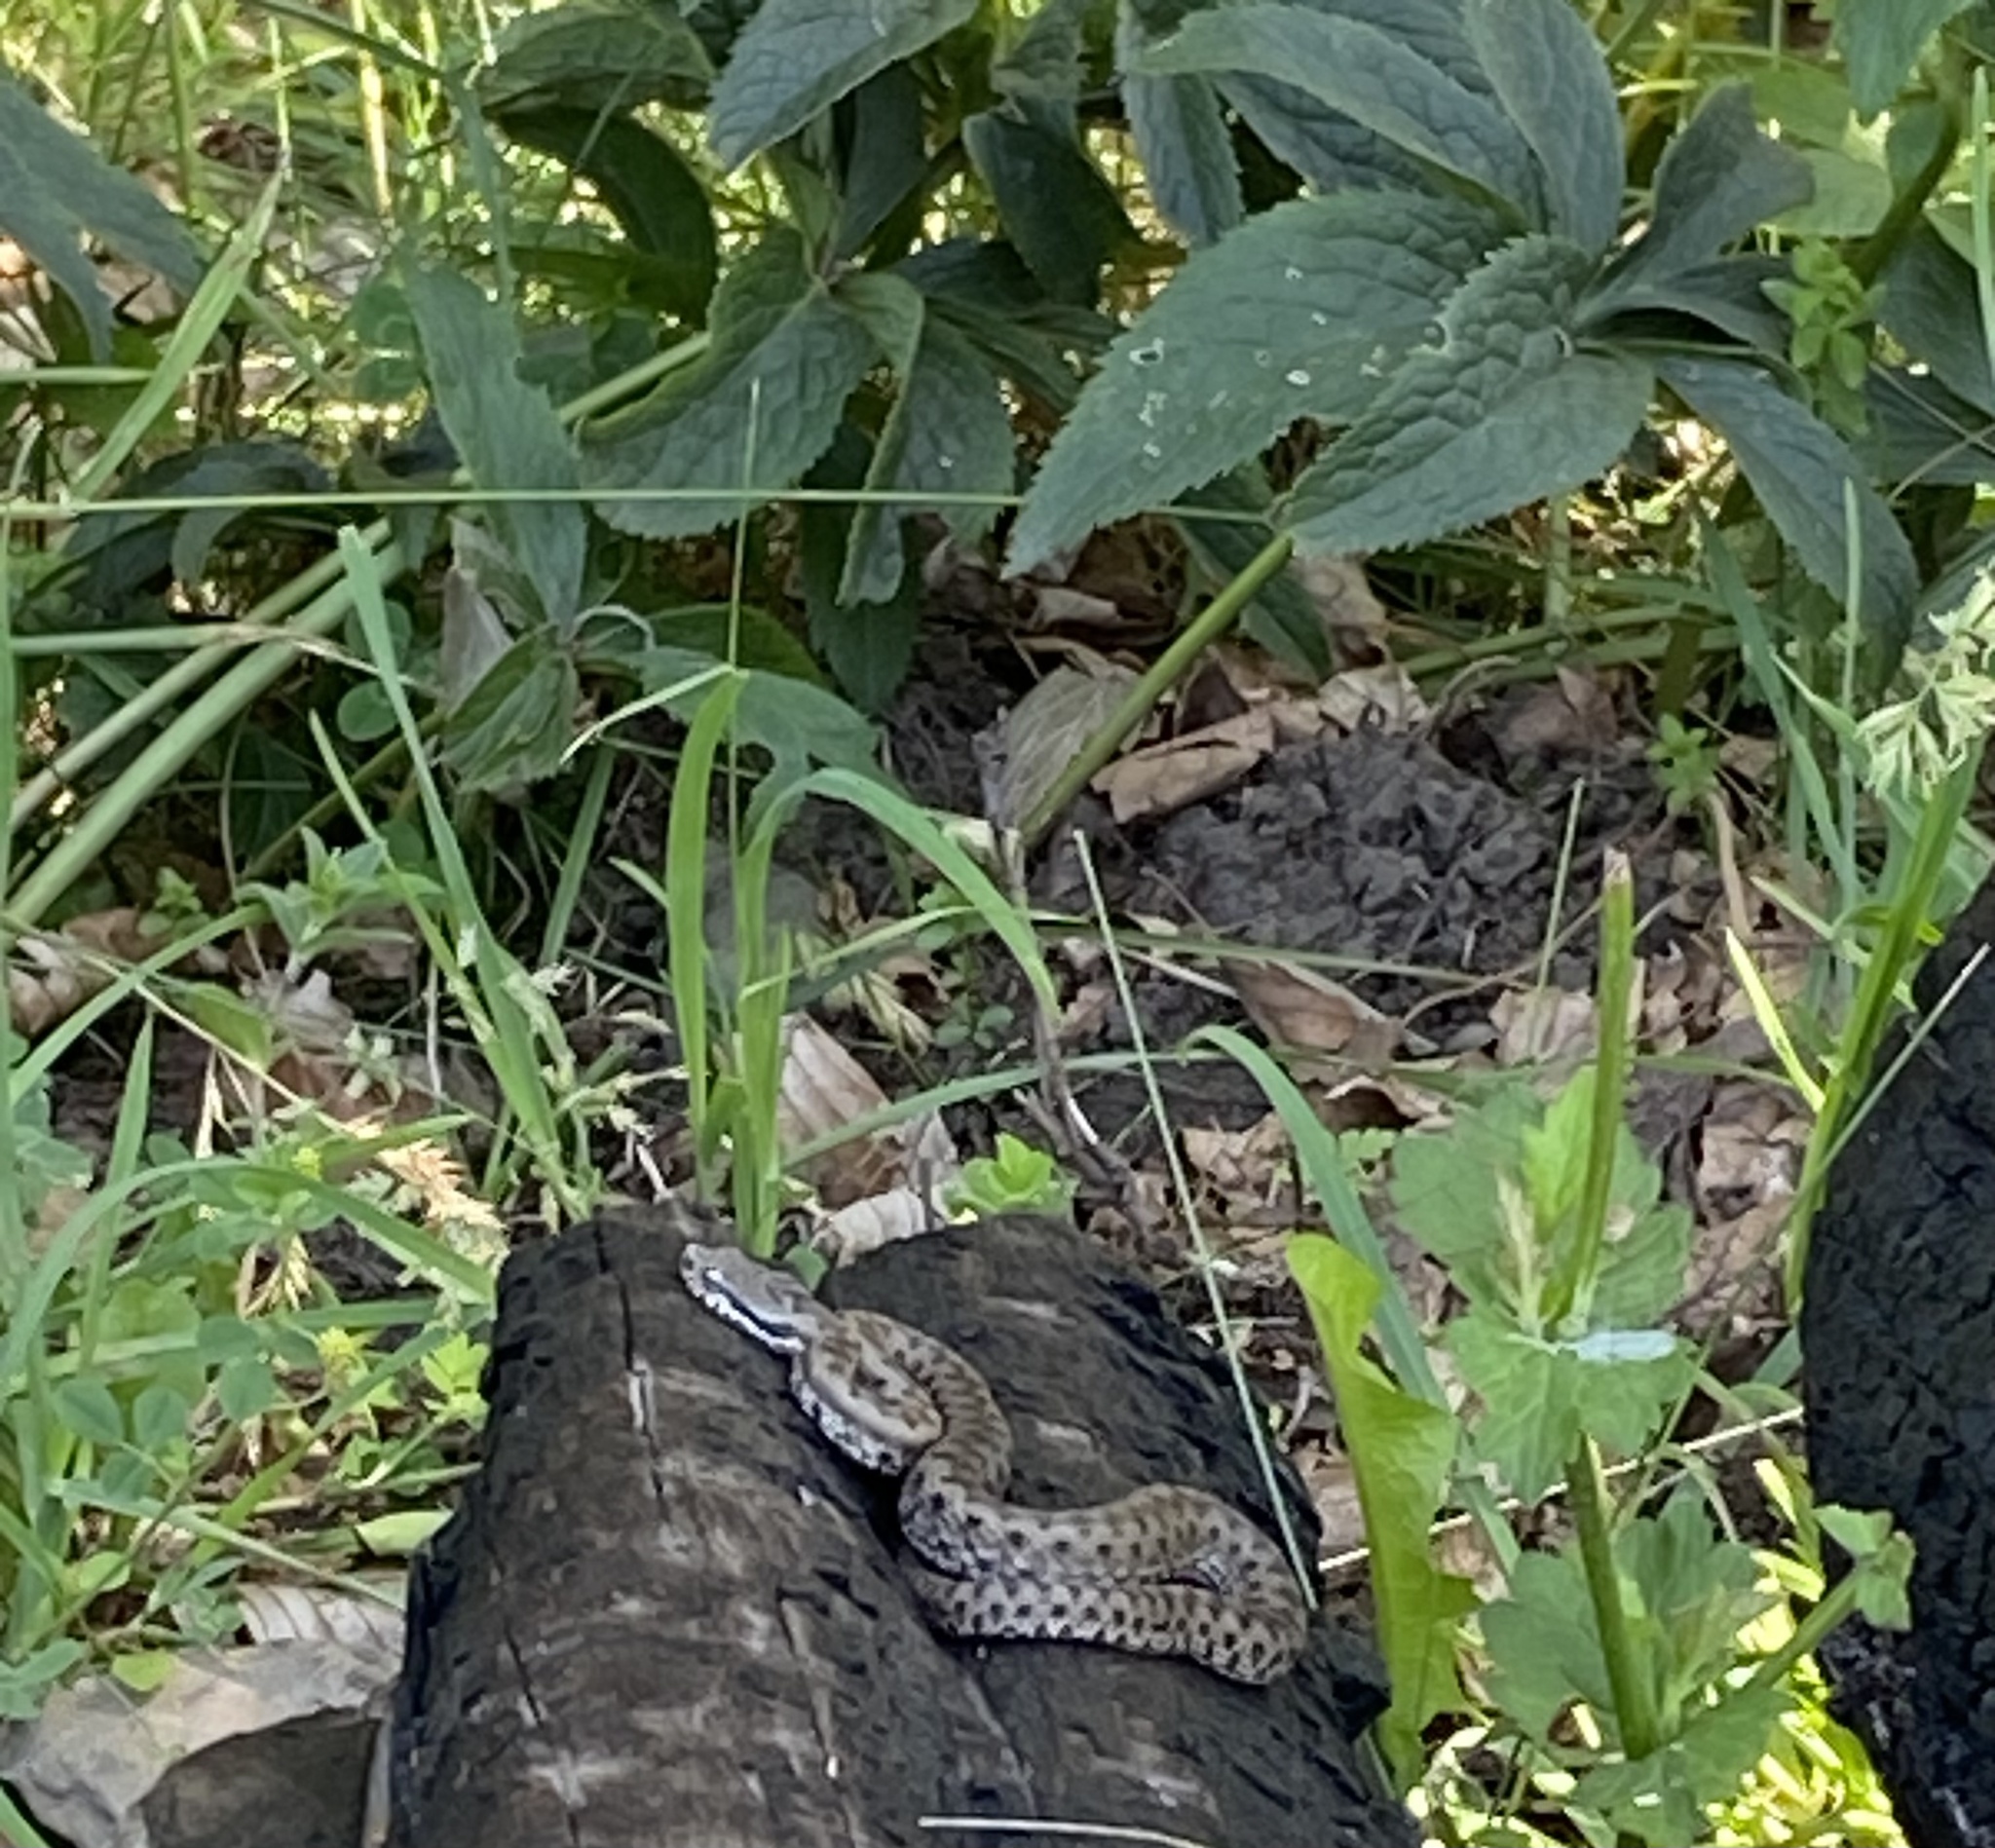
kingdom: Animalia
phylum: Chordata
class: Squamata
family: Viperidae
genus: Vipera
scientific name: Vipera aspis
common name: Asp viper
